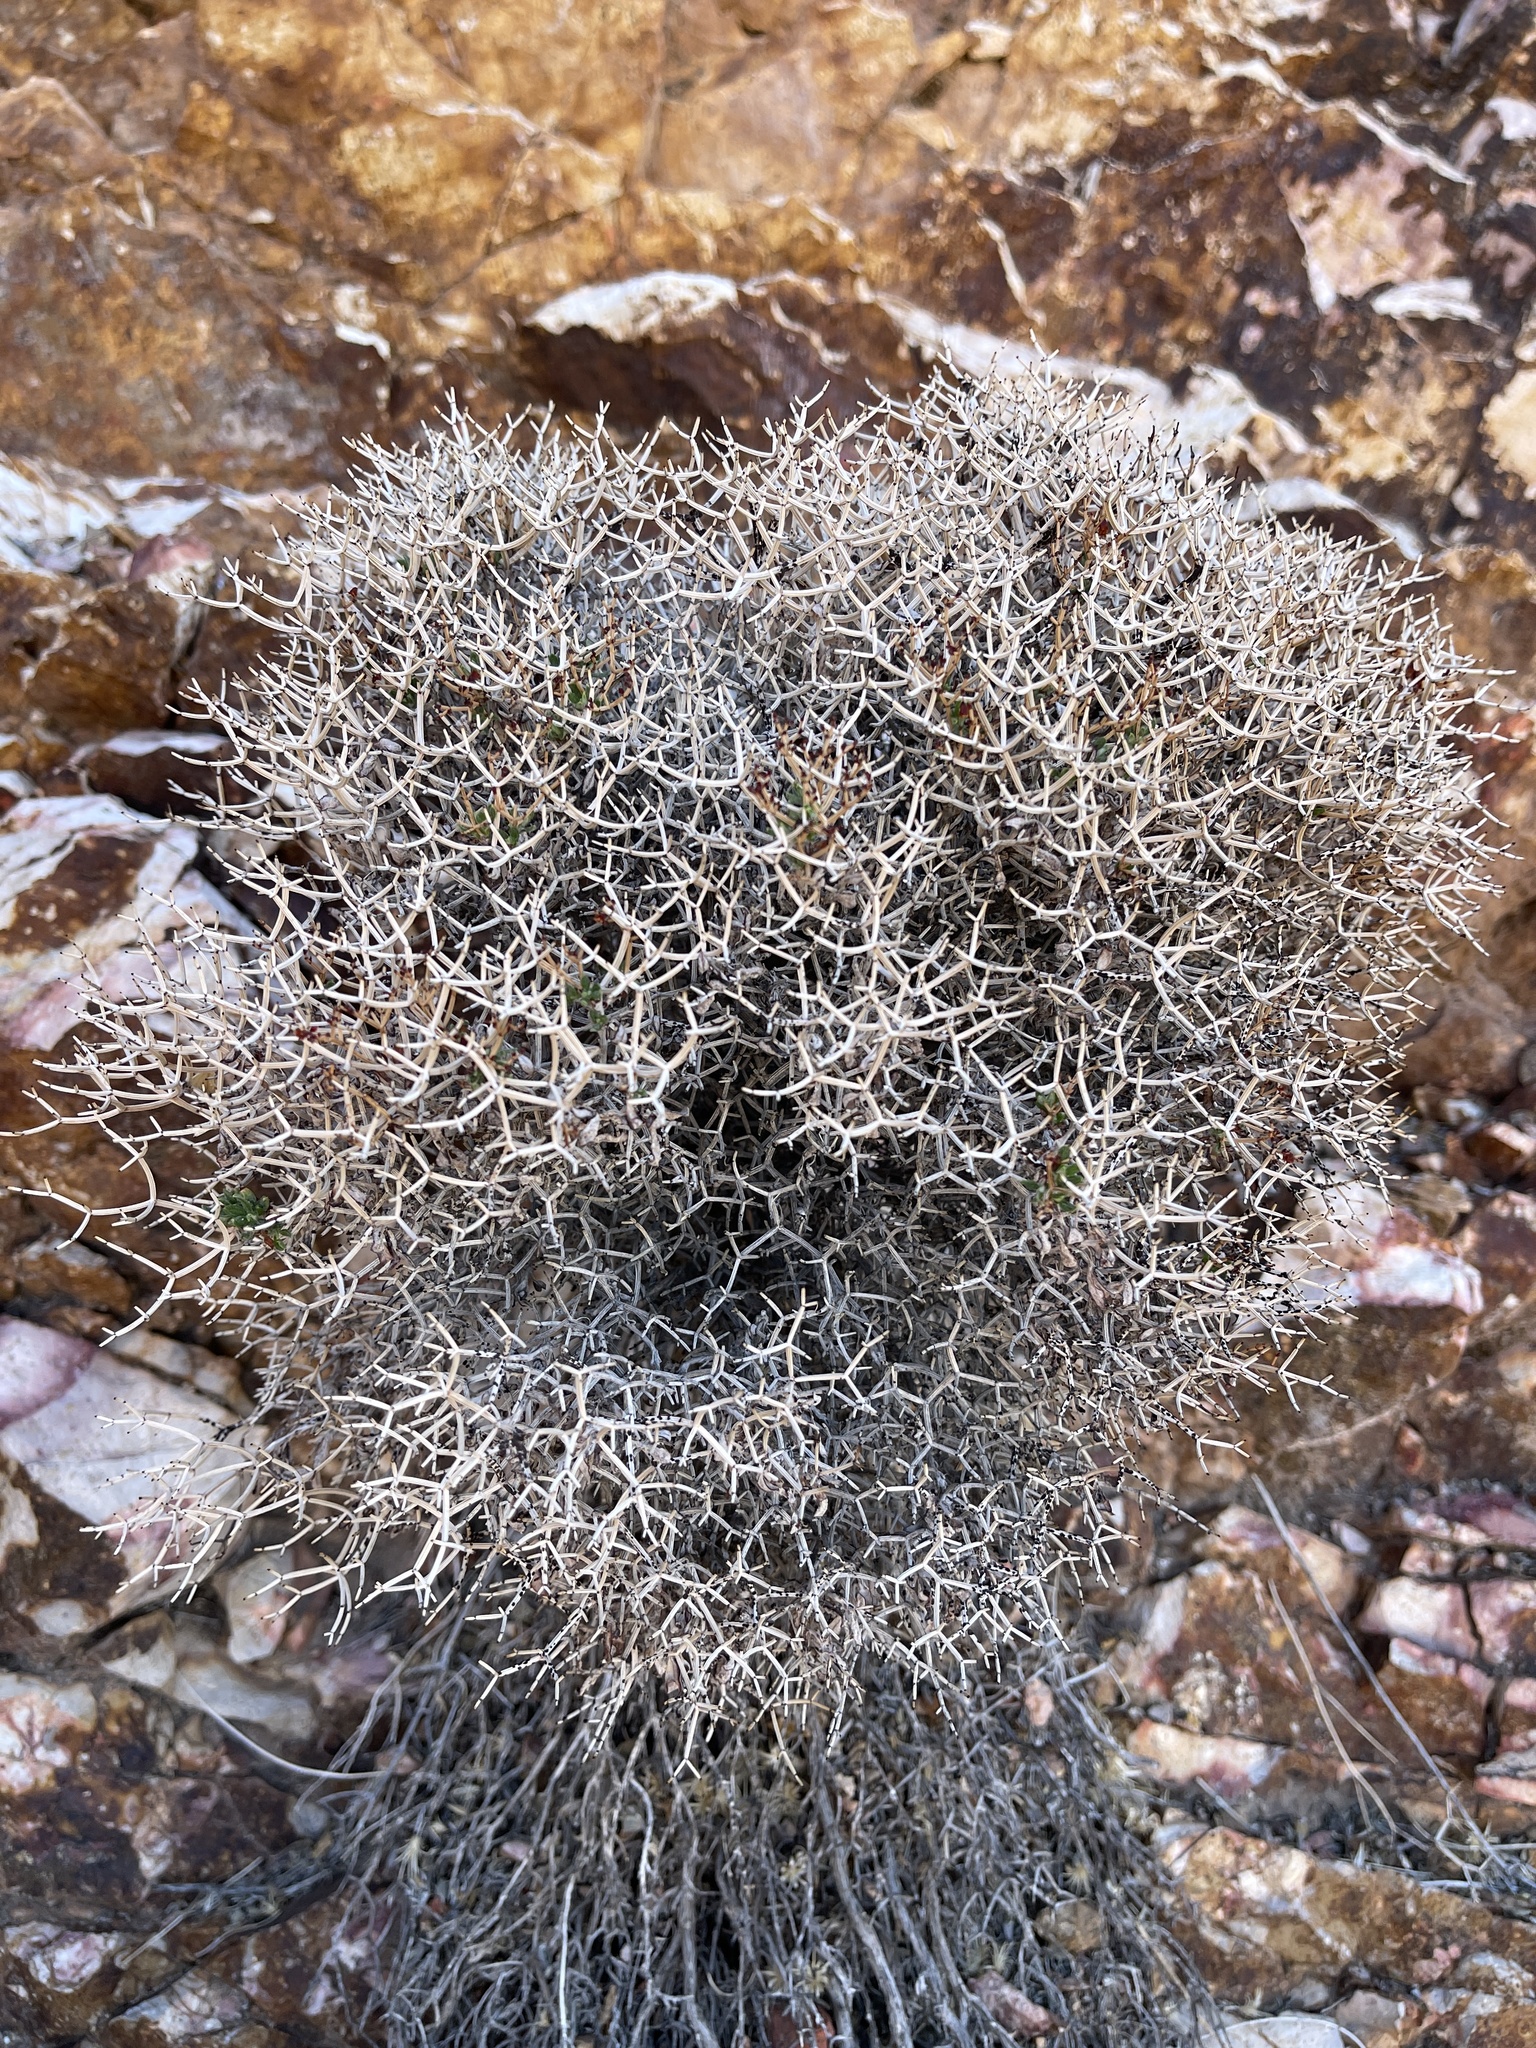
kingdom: Plantae
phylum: Tracheophyta
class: Magnoliopsida
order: Caryophyllales
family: Polygonaceae
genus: Eriogonum
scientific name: Eriogonum heermannii
